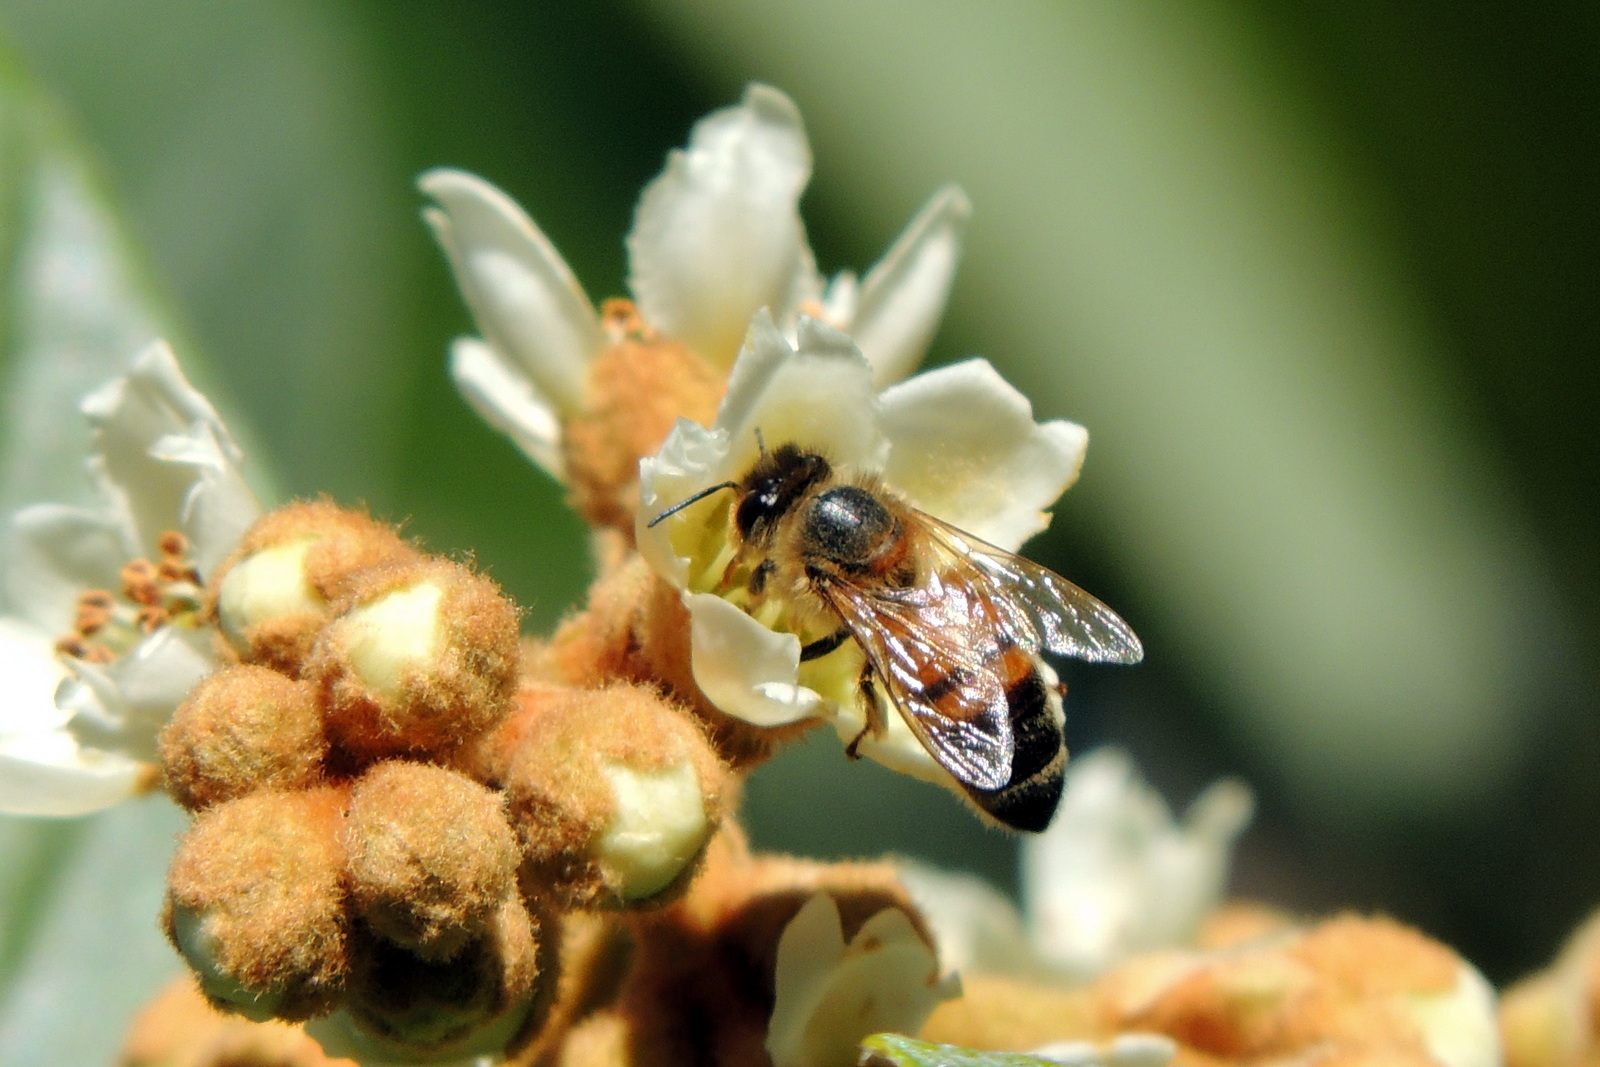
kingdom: Animalia
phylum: Arthropoda
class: Insecta
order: Hymenoptera
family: Apidae
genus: Apis
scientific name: Apis mellifera
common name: Honey bee
